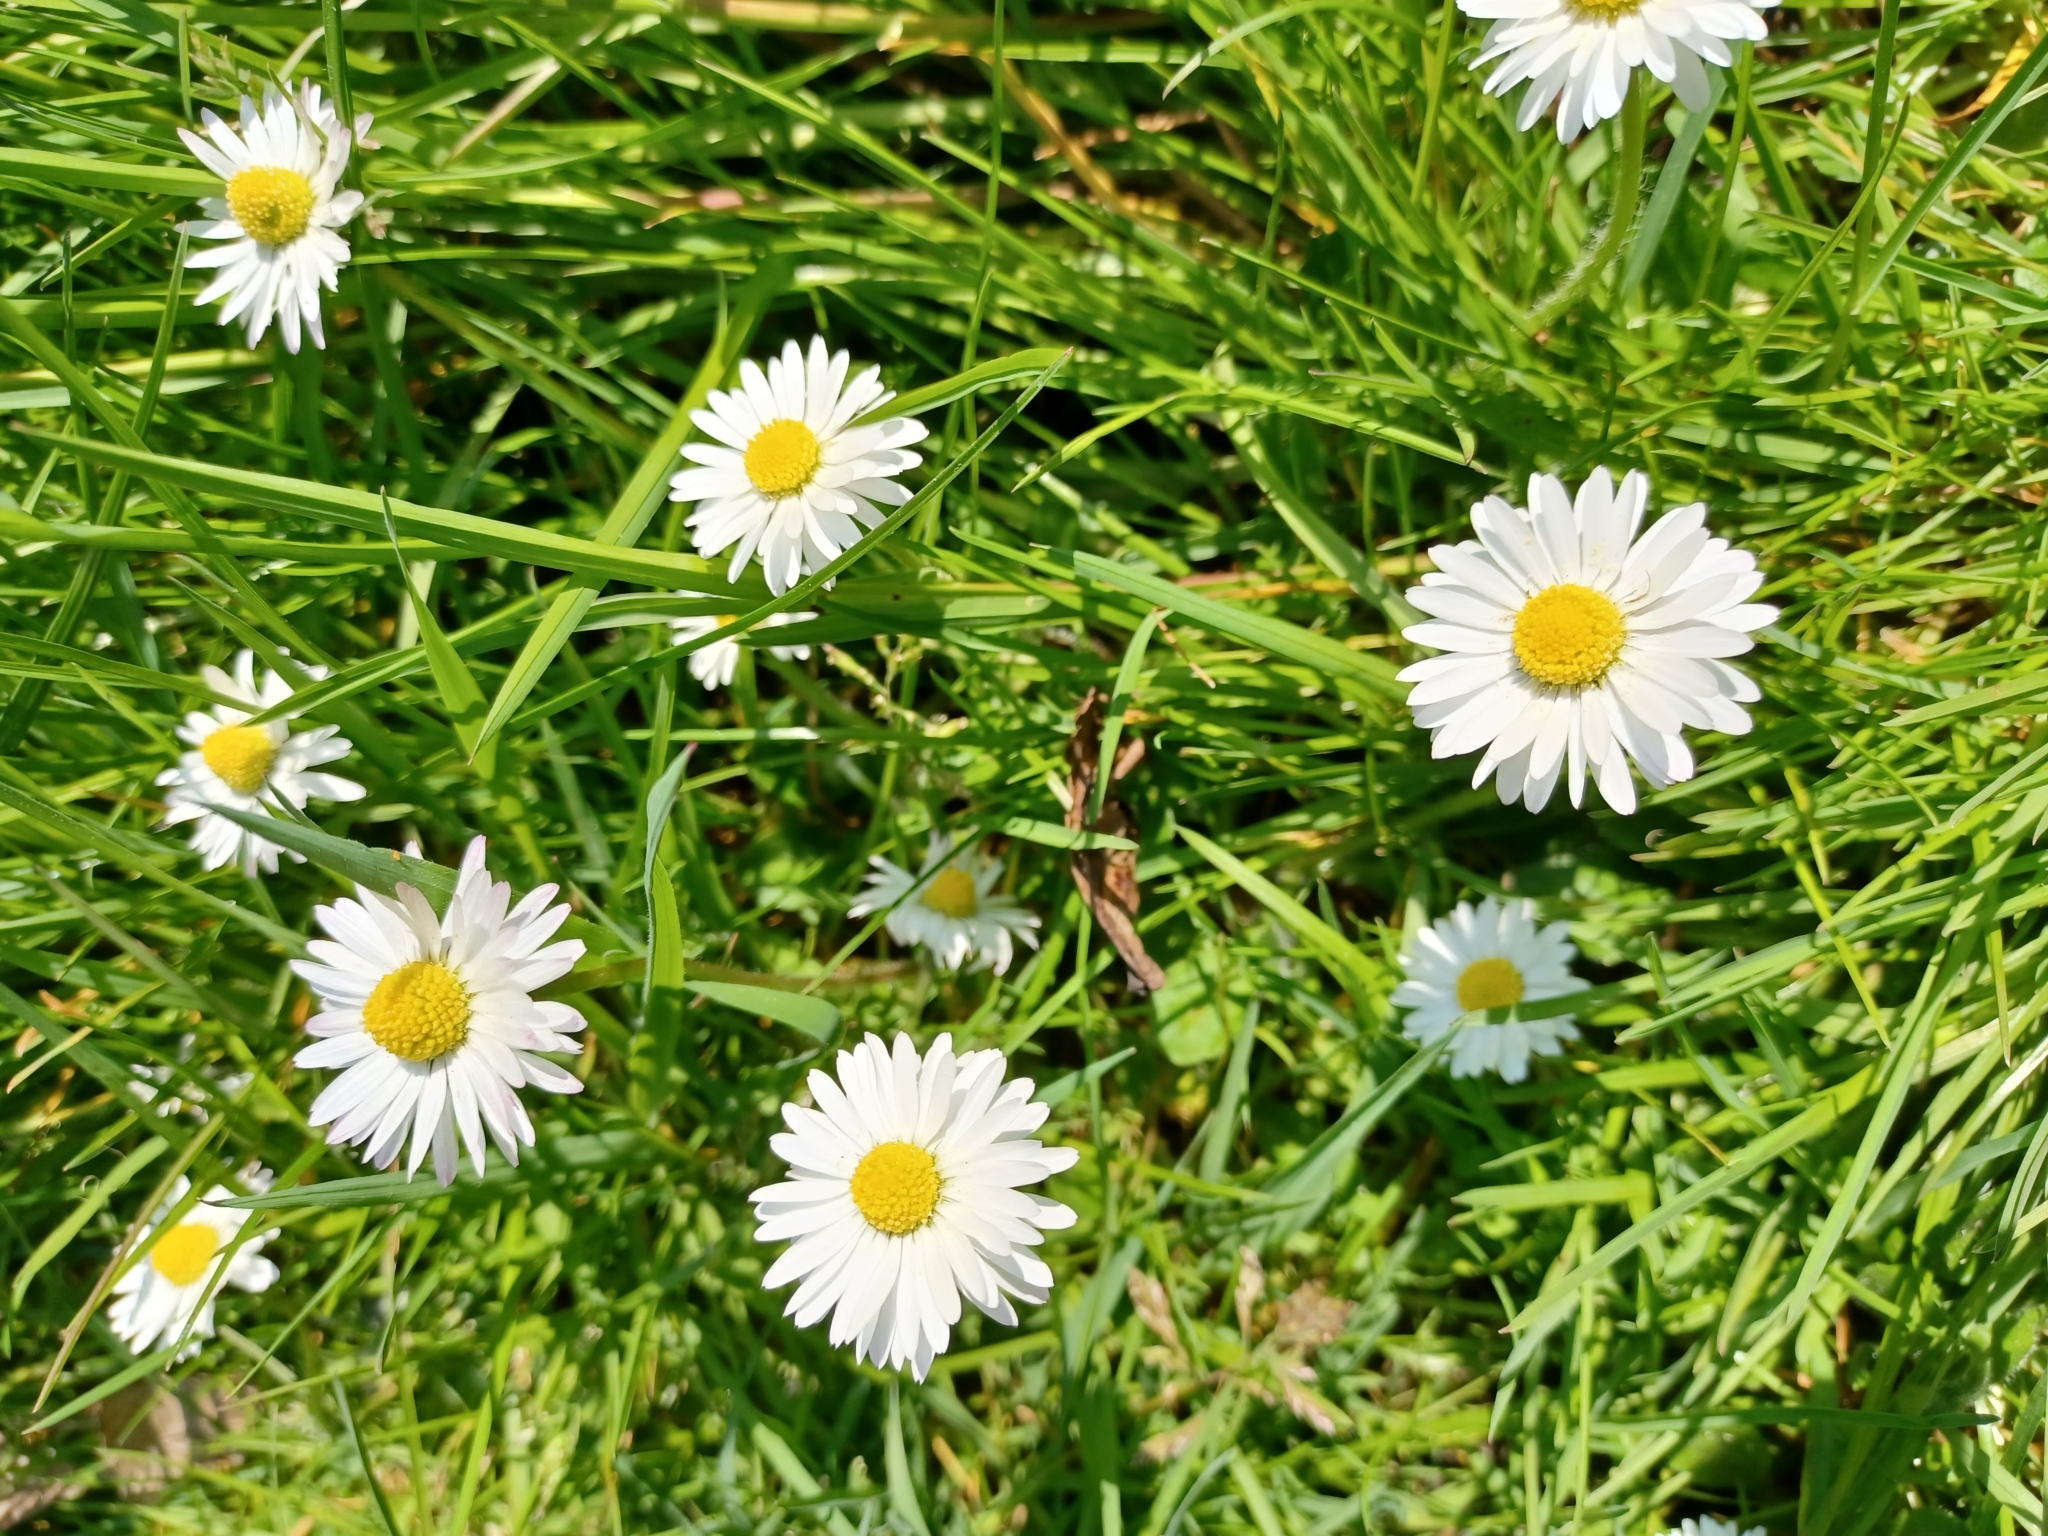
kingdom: Plantae
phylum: Tracheophyta
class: Magnoliopsida
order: Asterales
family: Asteraceae
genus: Bellis
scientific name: Bellis perennis
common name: Lawndaisy
